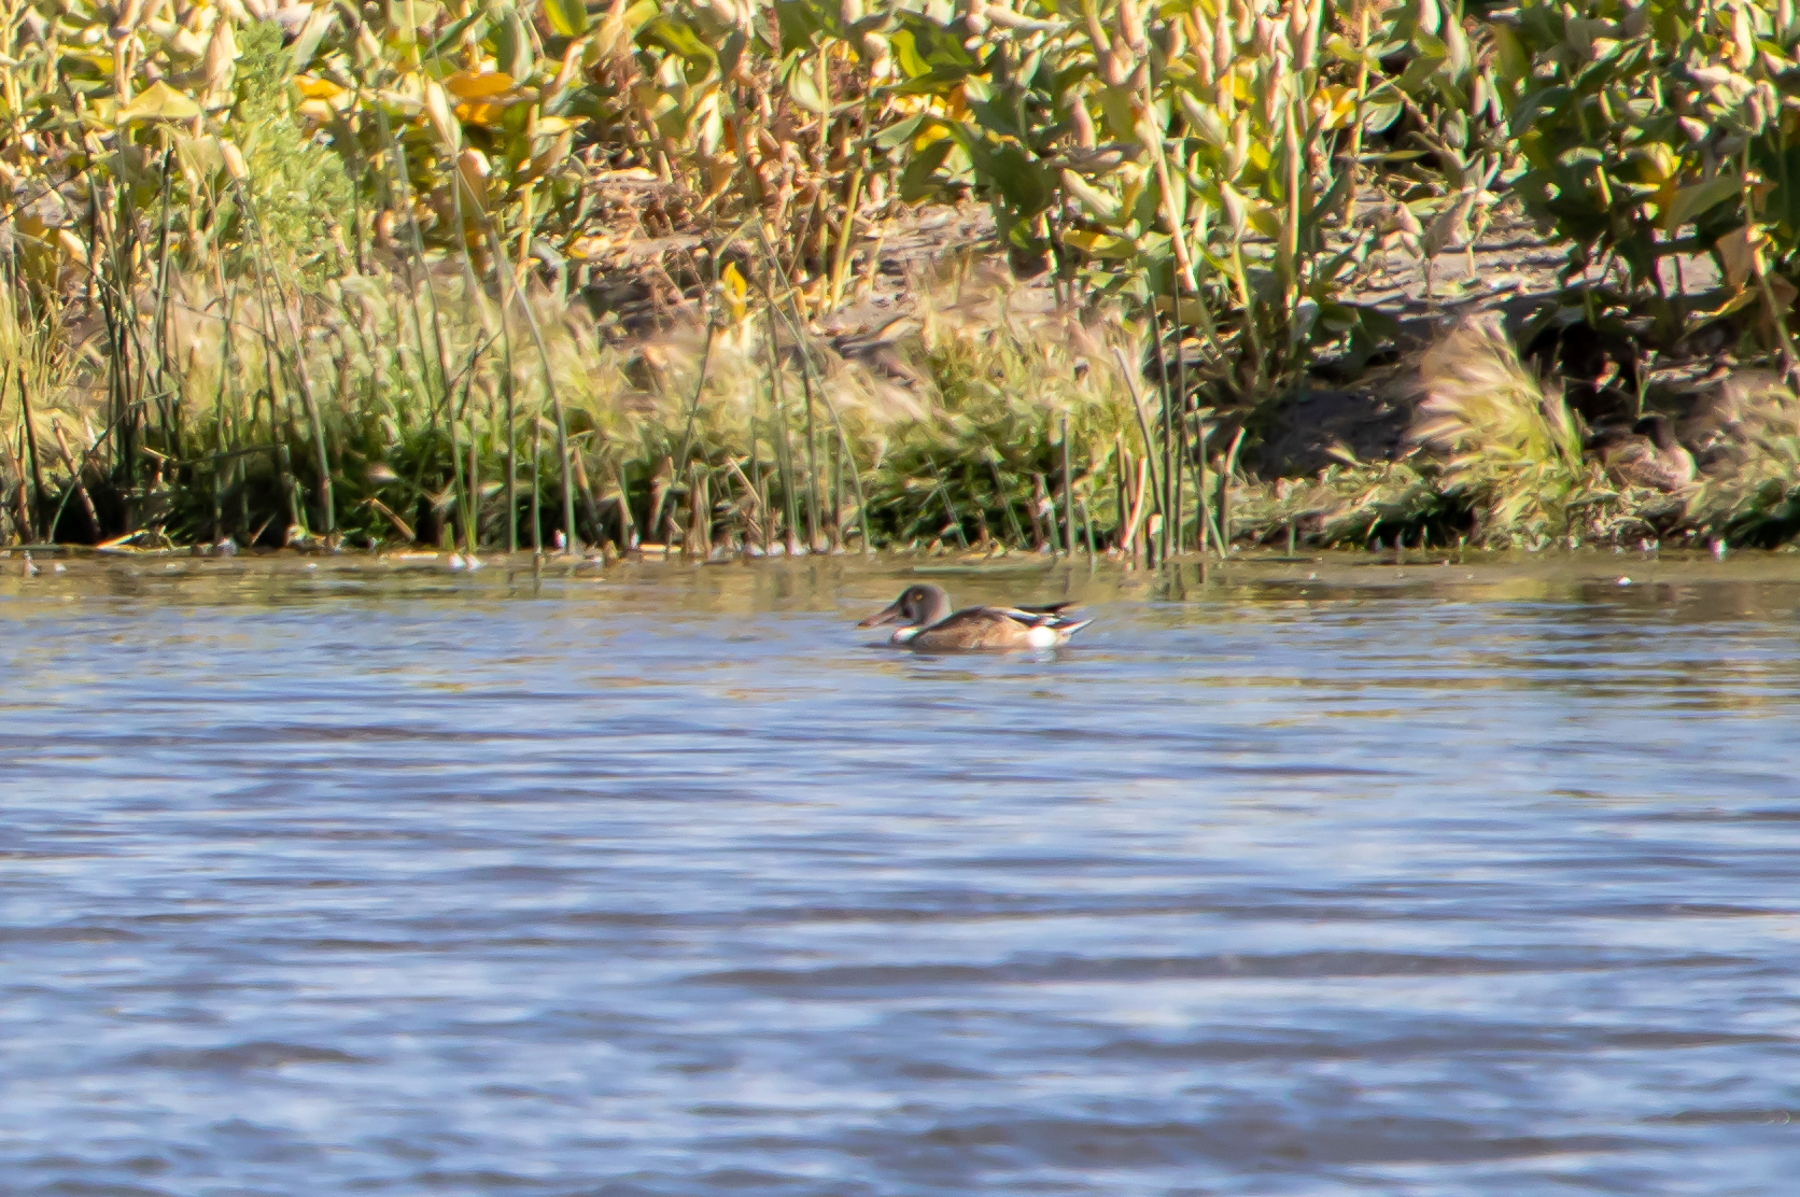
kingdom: Animalia
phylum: Chordata
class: Aves
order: Anseriformes
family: Anatidae
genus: Spatula
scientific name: Spatula clypeata
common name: Northern shoveler
